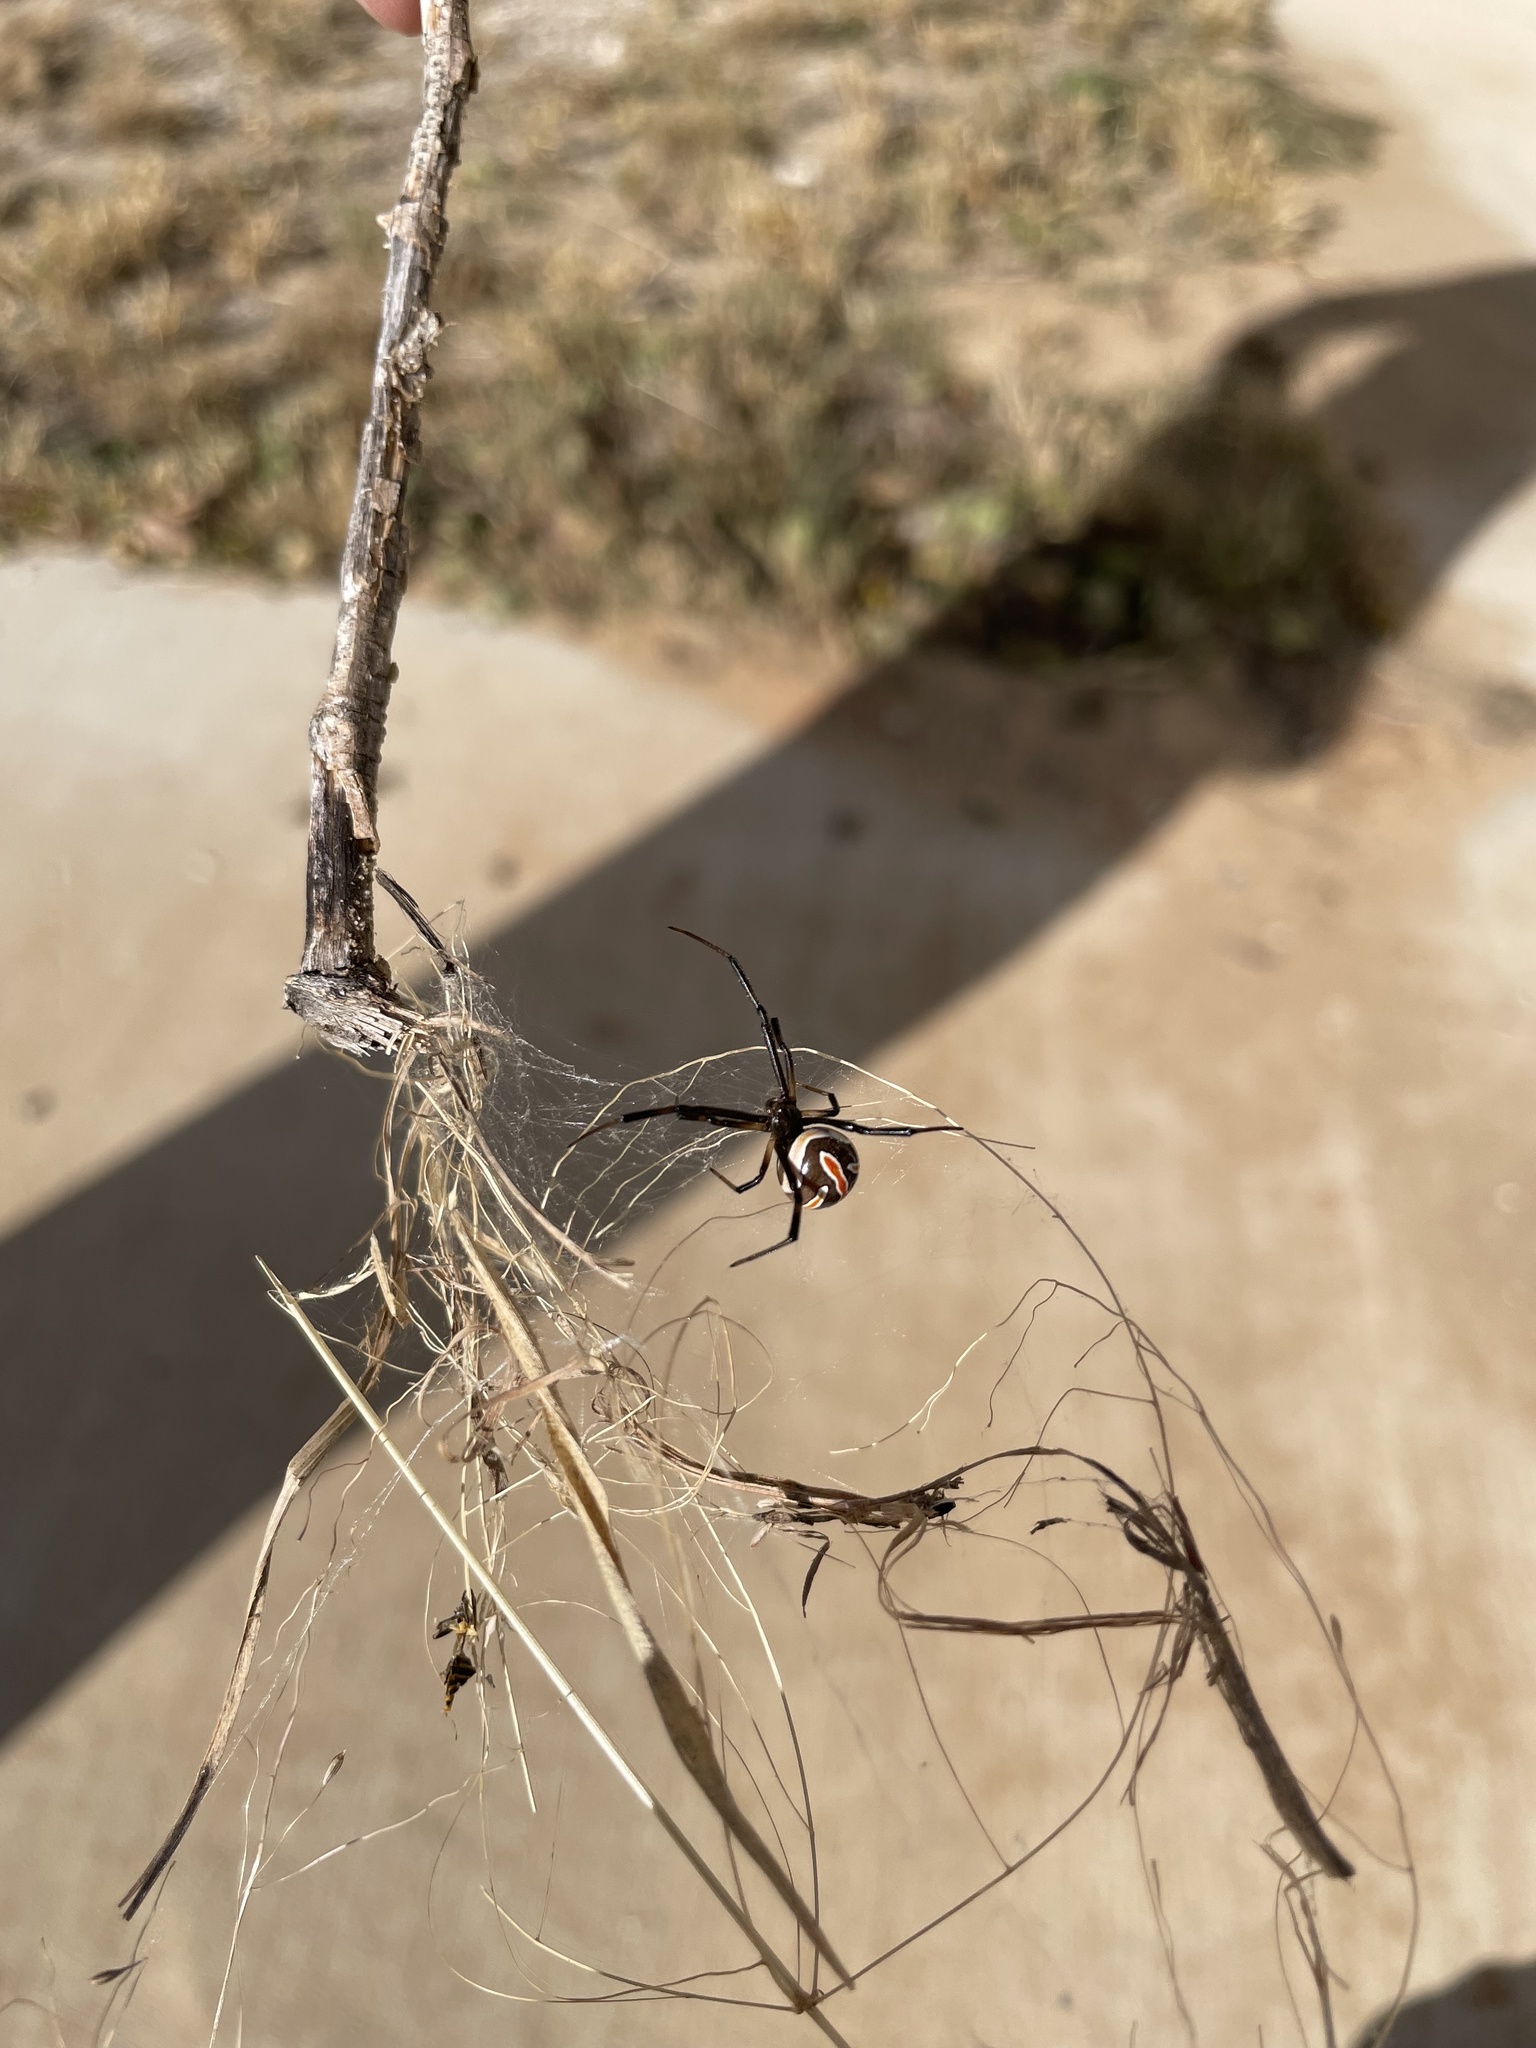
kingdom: Animalia
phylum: Arthropoda
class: Arachnida
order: Araneae
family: Theridiidae
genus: Latrodectus
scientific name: Latrodectus hesperus
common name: Western black widow
